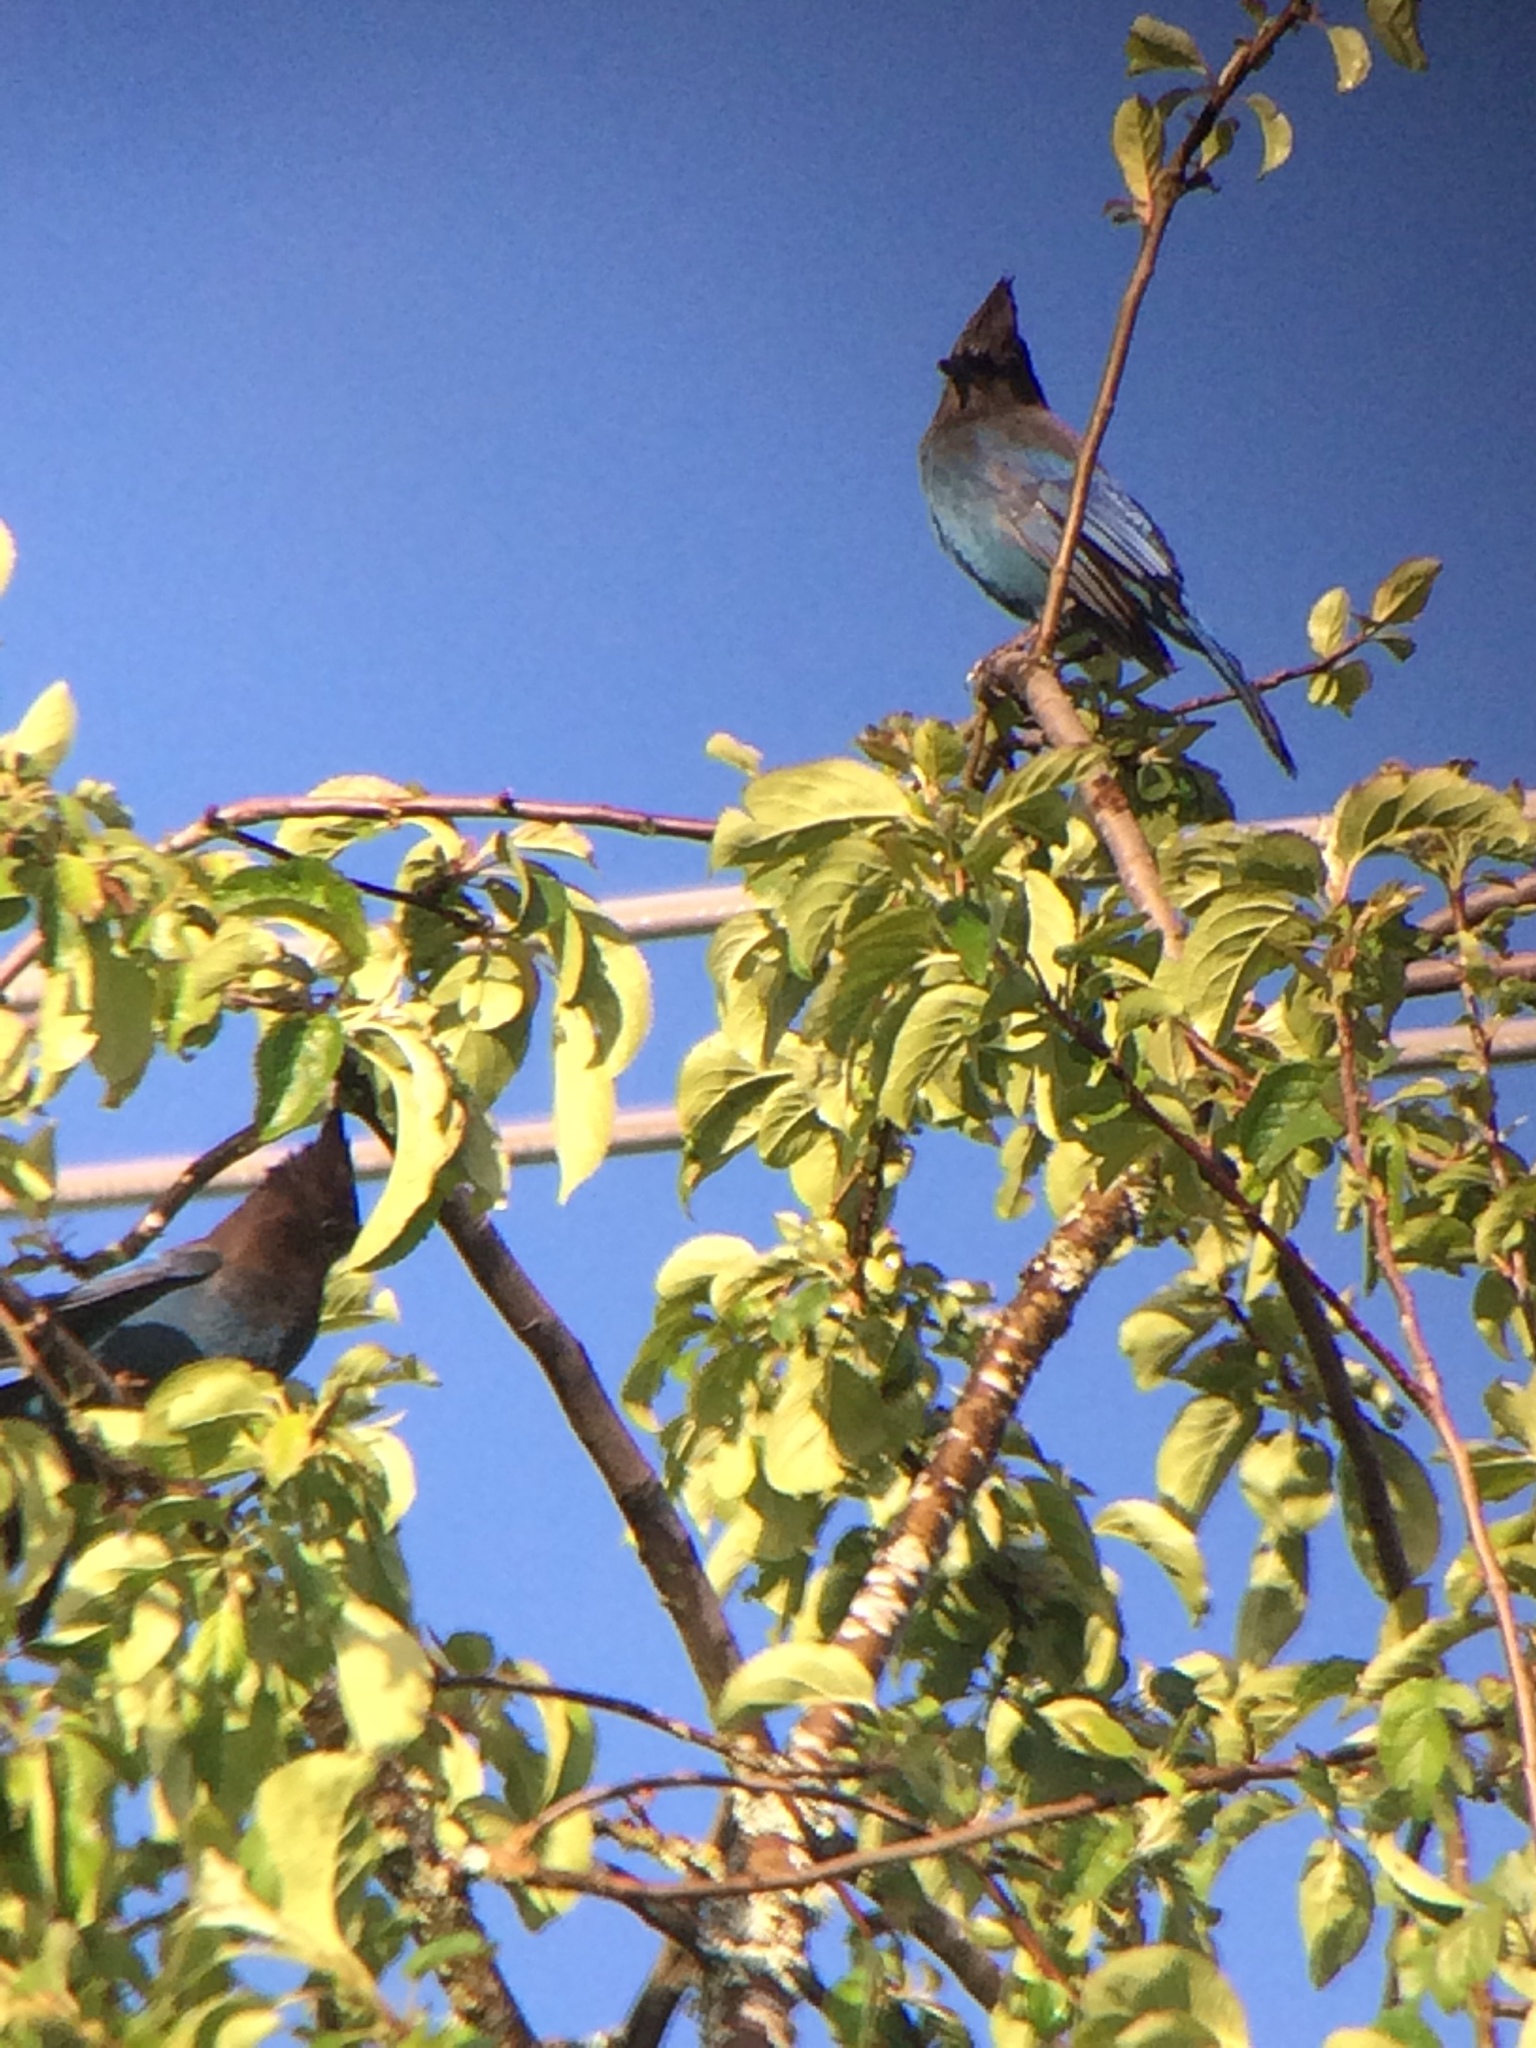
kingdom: Animalia
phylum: Chordata
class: Aves
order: Passeriformes
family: Corvidae
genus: Cyanocitta
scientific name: Cyanocitta stelleri
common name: Steller's jay
